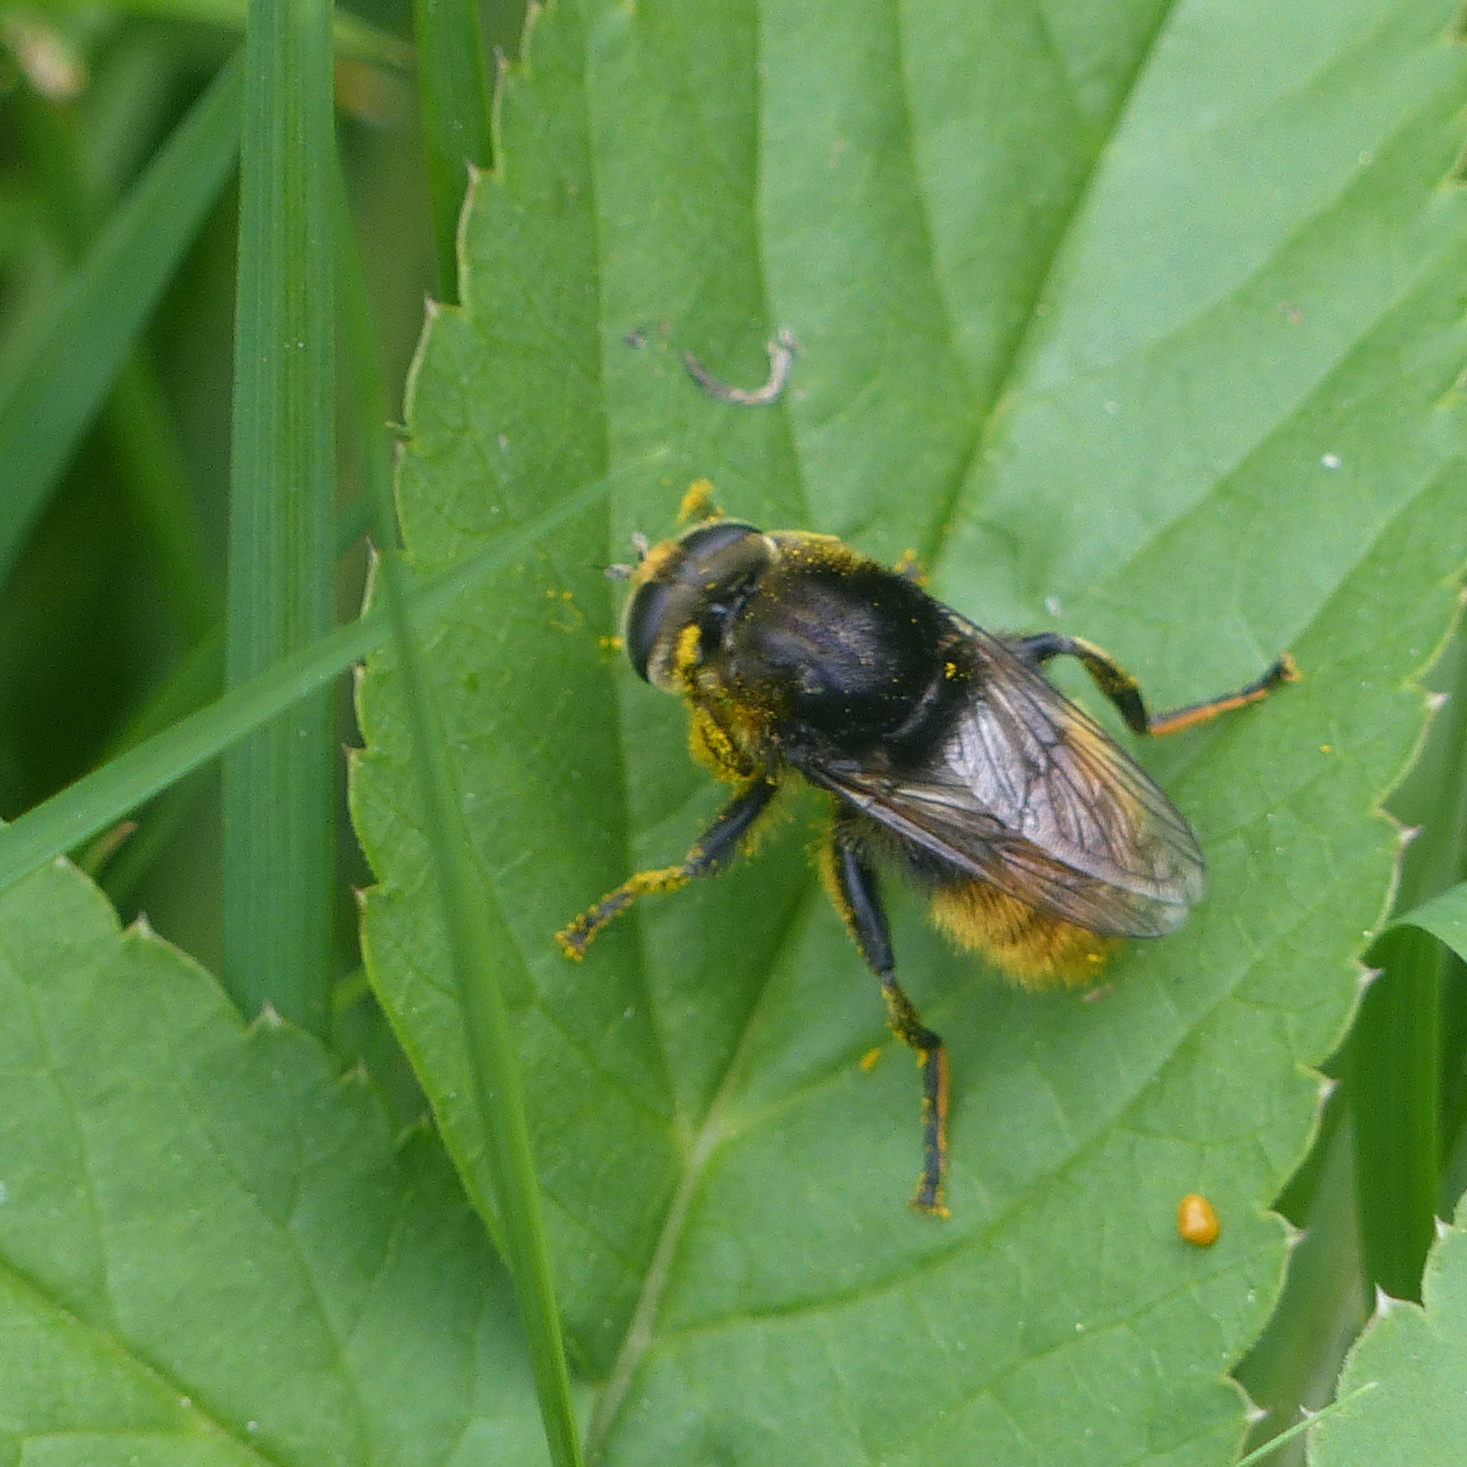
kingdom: Animalia
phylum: Arthropoda
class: Insecta
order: Diptera
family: Syrphidae
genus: Merodon
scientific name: Merodon equestris
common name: Greater bulb-fly
